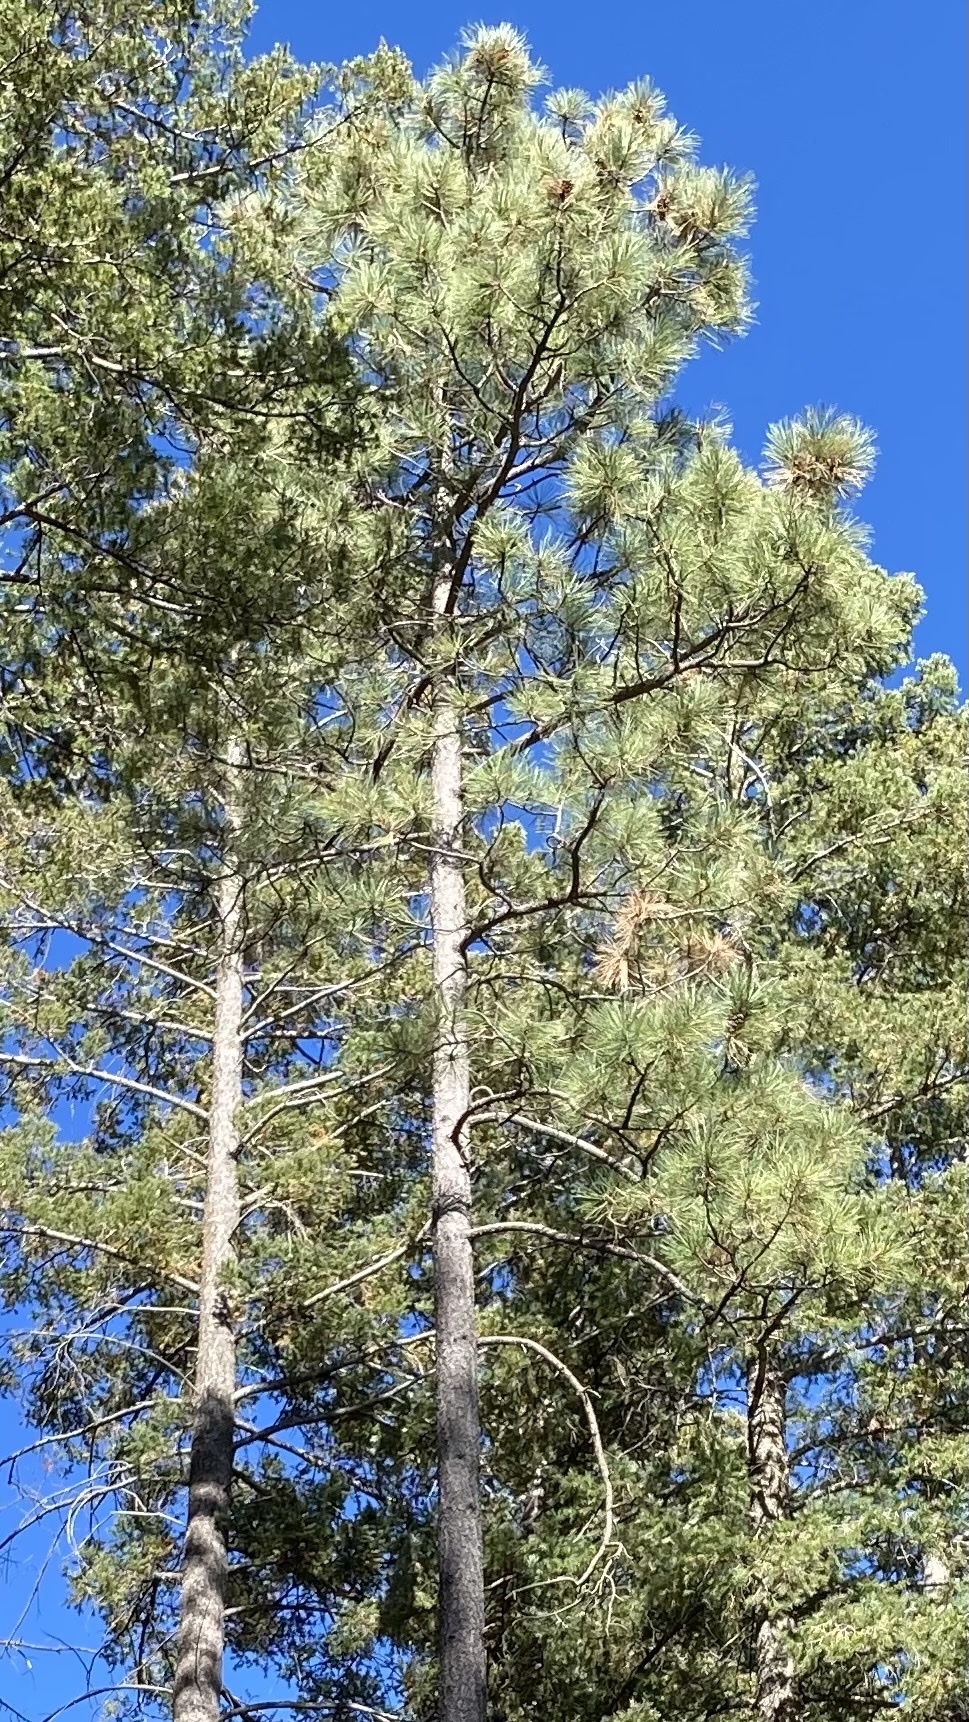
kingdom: Plantae
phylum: Tracheophyta
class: Pinopsida
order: Pinales
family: Pinaceae
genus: Pinus
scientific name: Pinus ponderosa
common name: Western yellow-pine
